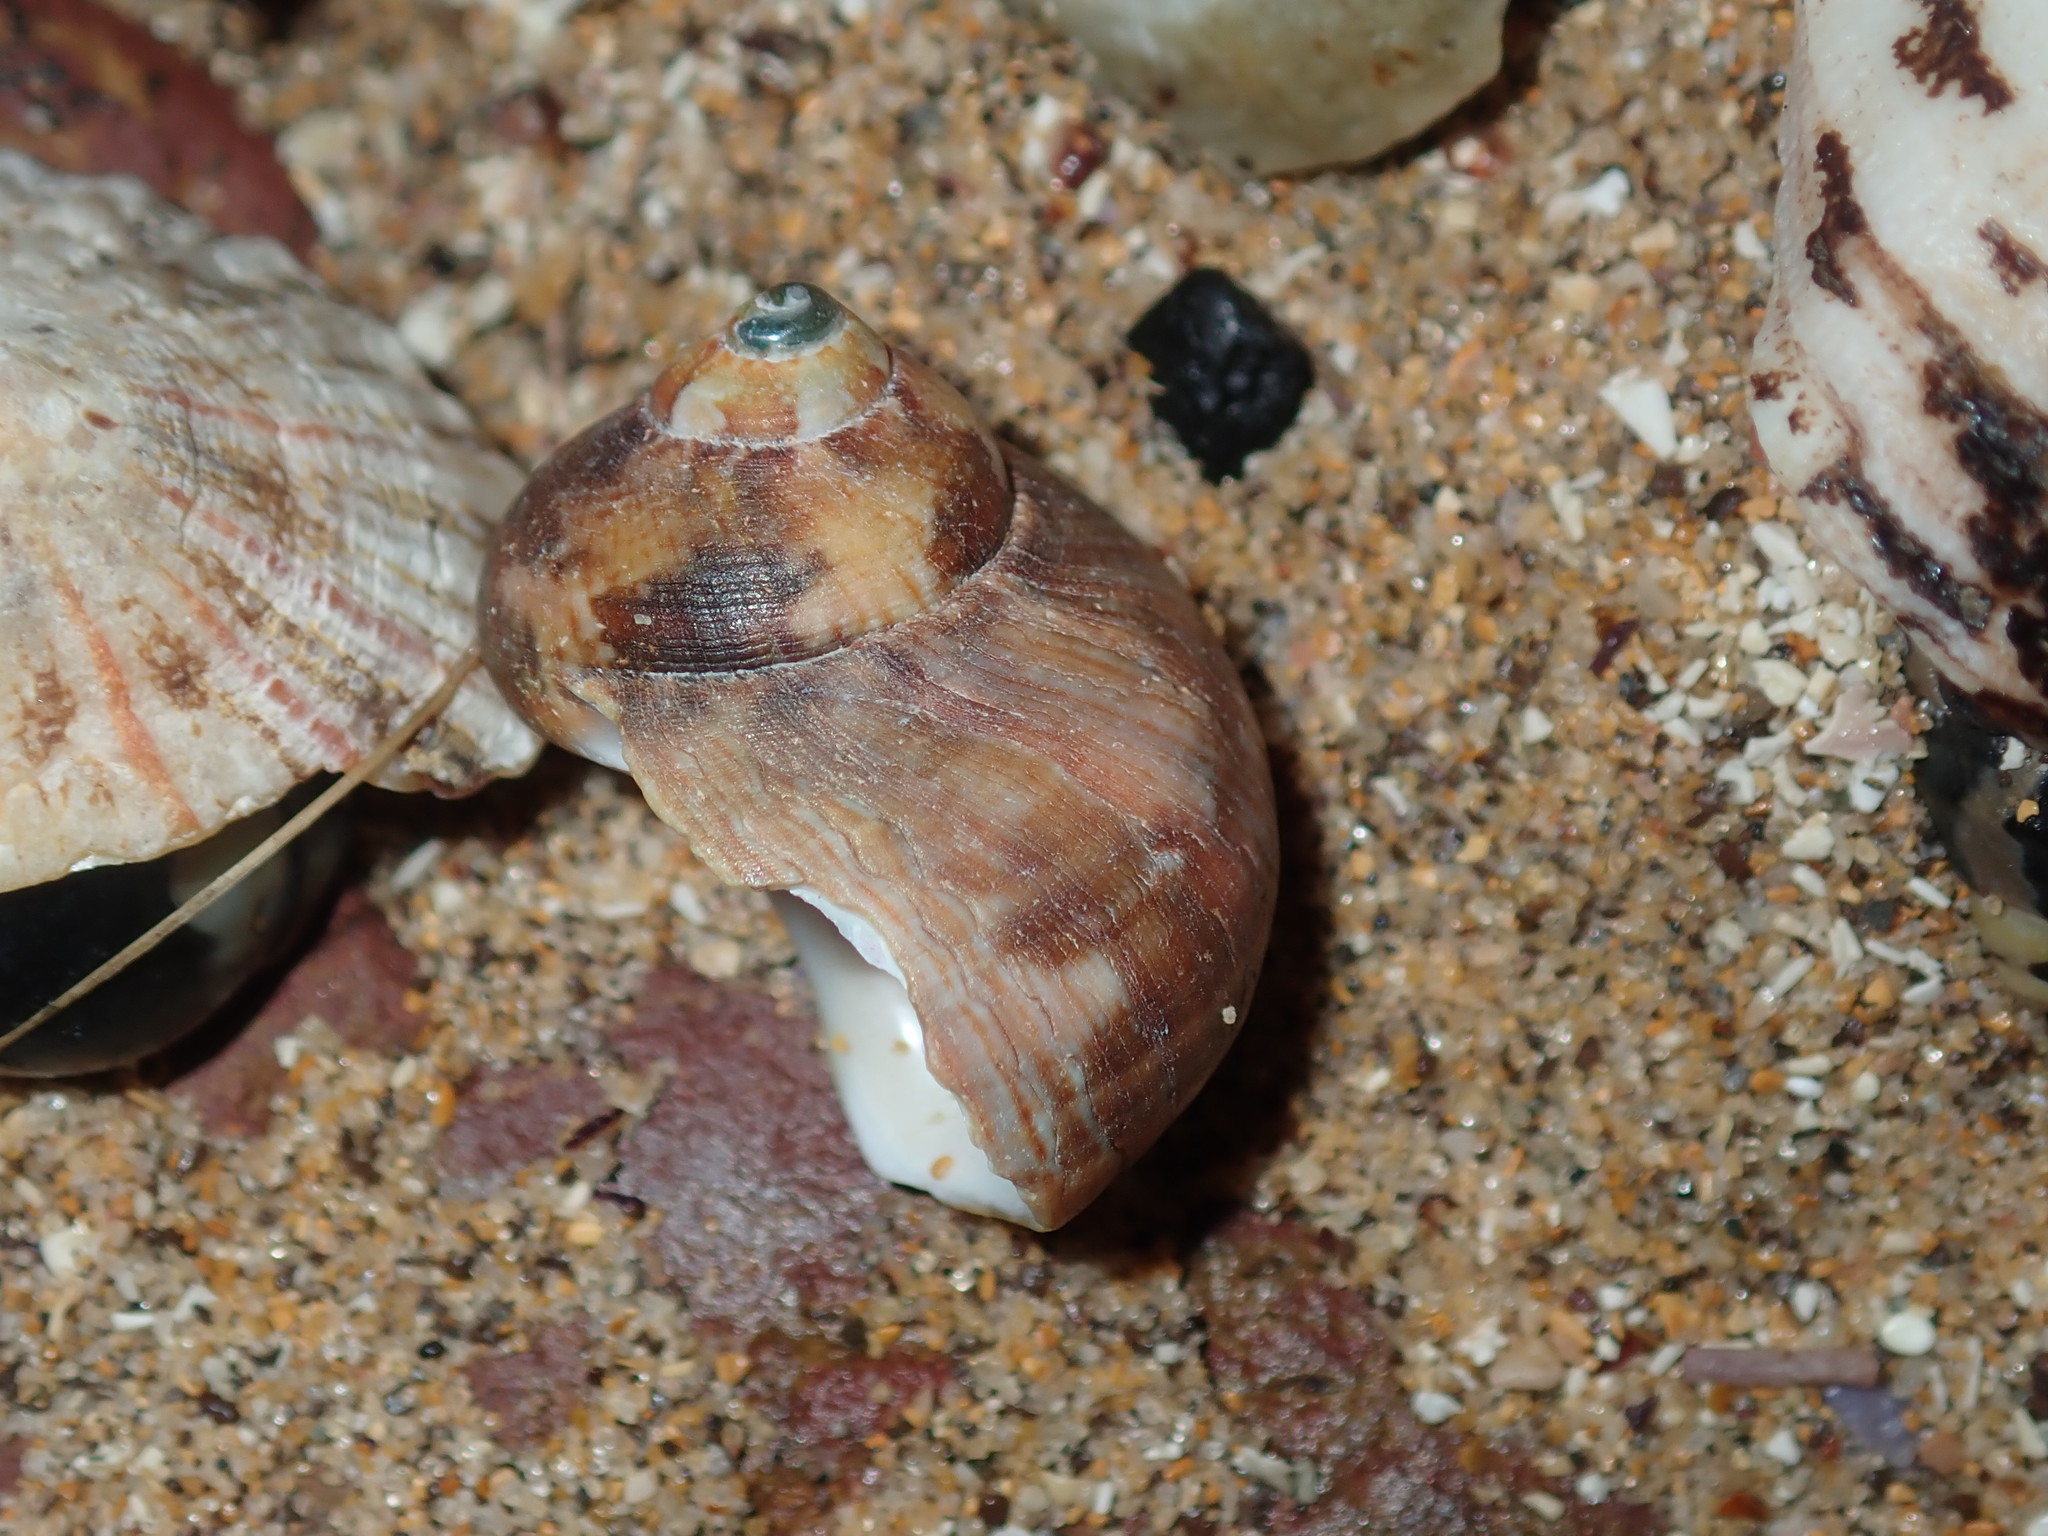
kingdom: Animalia
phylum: Mollusca
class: Gastropoda
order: Trochida
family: Turbinidae
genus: Turbo
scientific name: Turbo militaris
